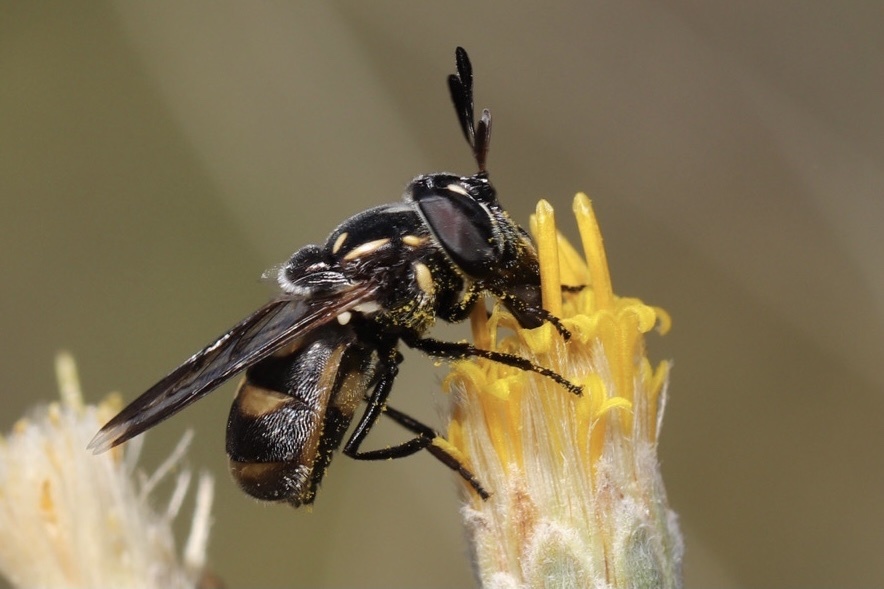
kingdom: Animalia
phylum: Arthropoda
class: Insecta
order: Diptera
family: Syrphidae
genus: Copestylum
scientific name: Copestylum limbipenne
